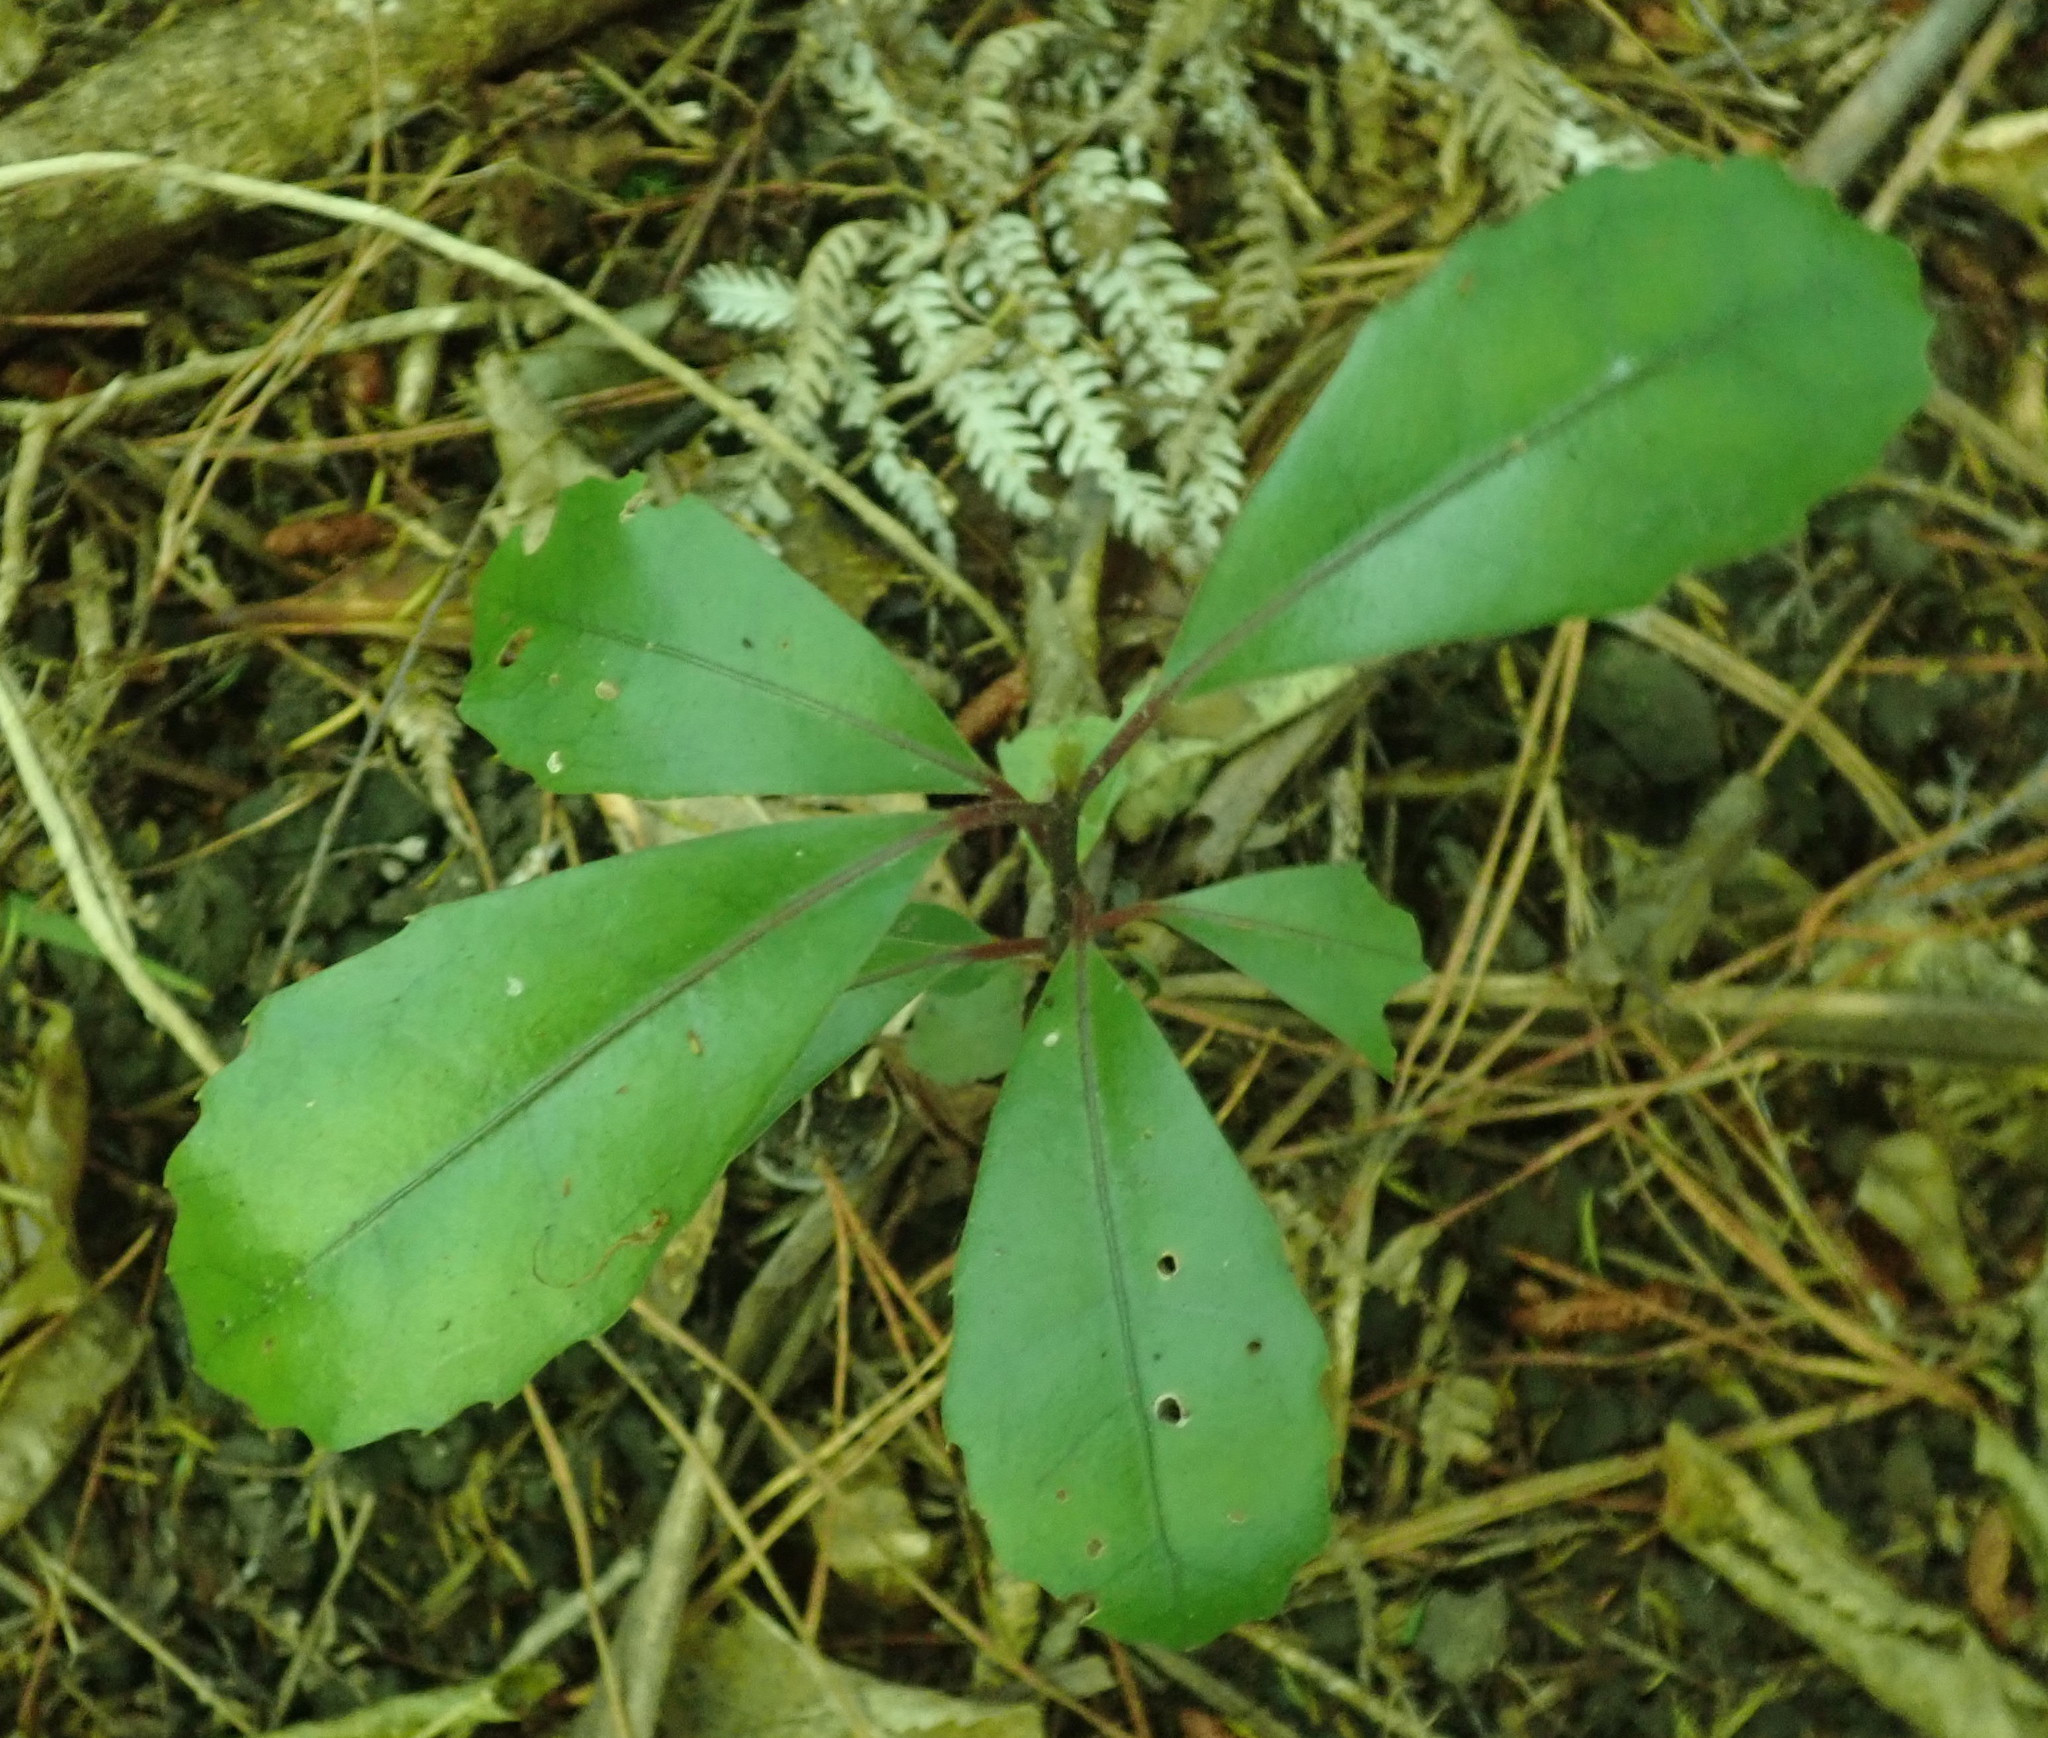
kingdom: Plantae
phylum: Tracheophyta
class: Magnoliopsida
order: Laurales
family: Monimiaceae
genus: Hedycarya
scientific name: Hedycarya arborea
